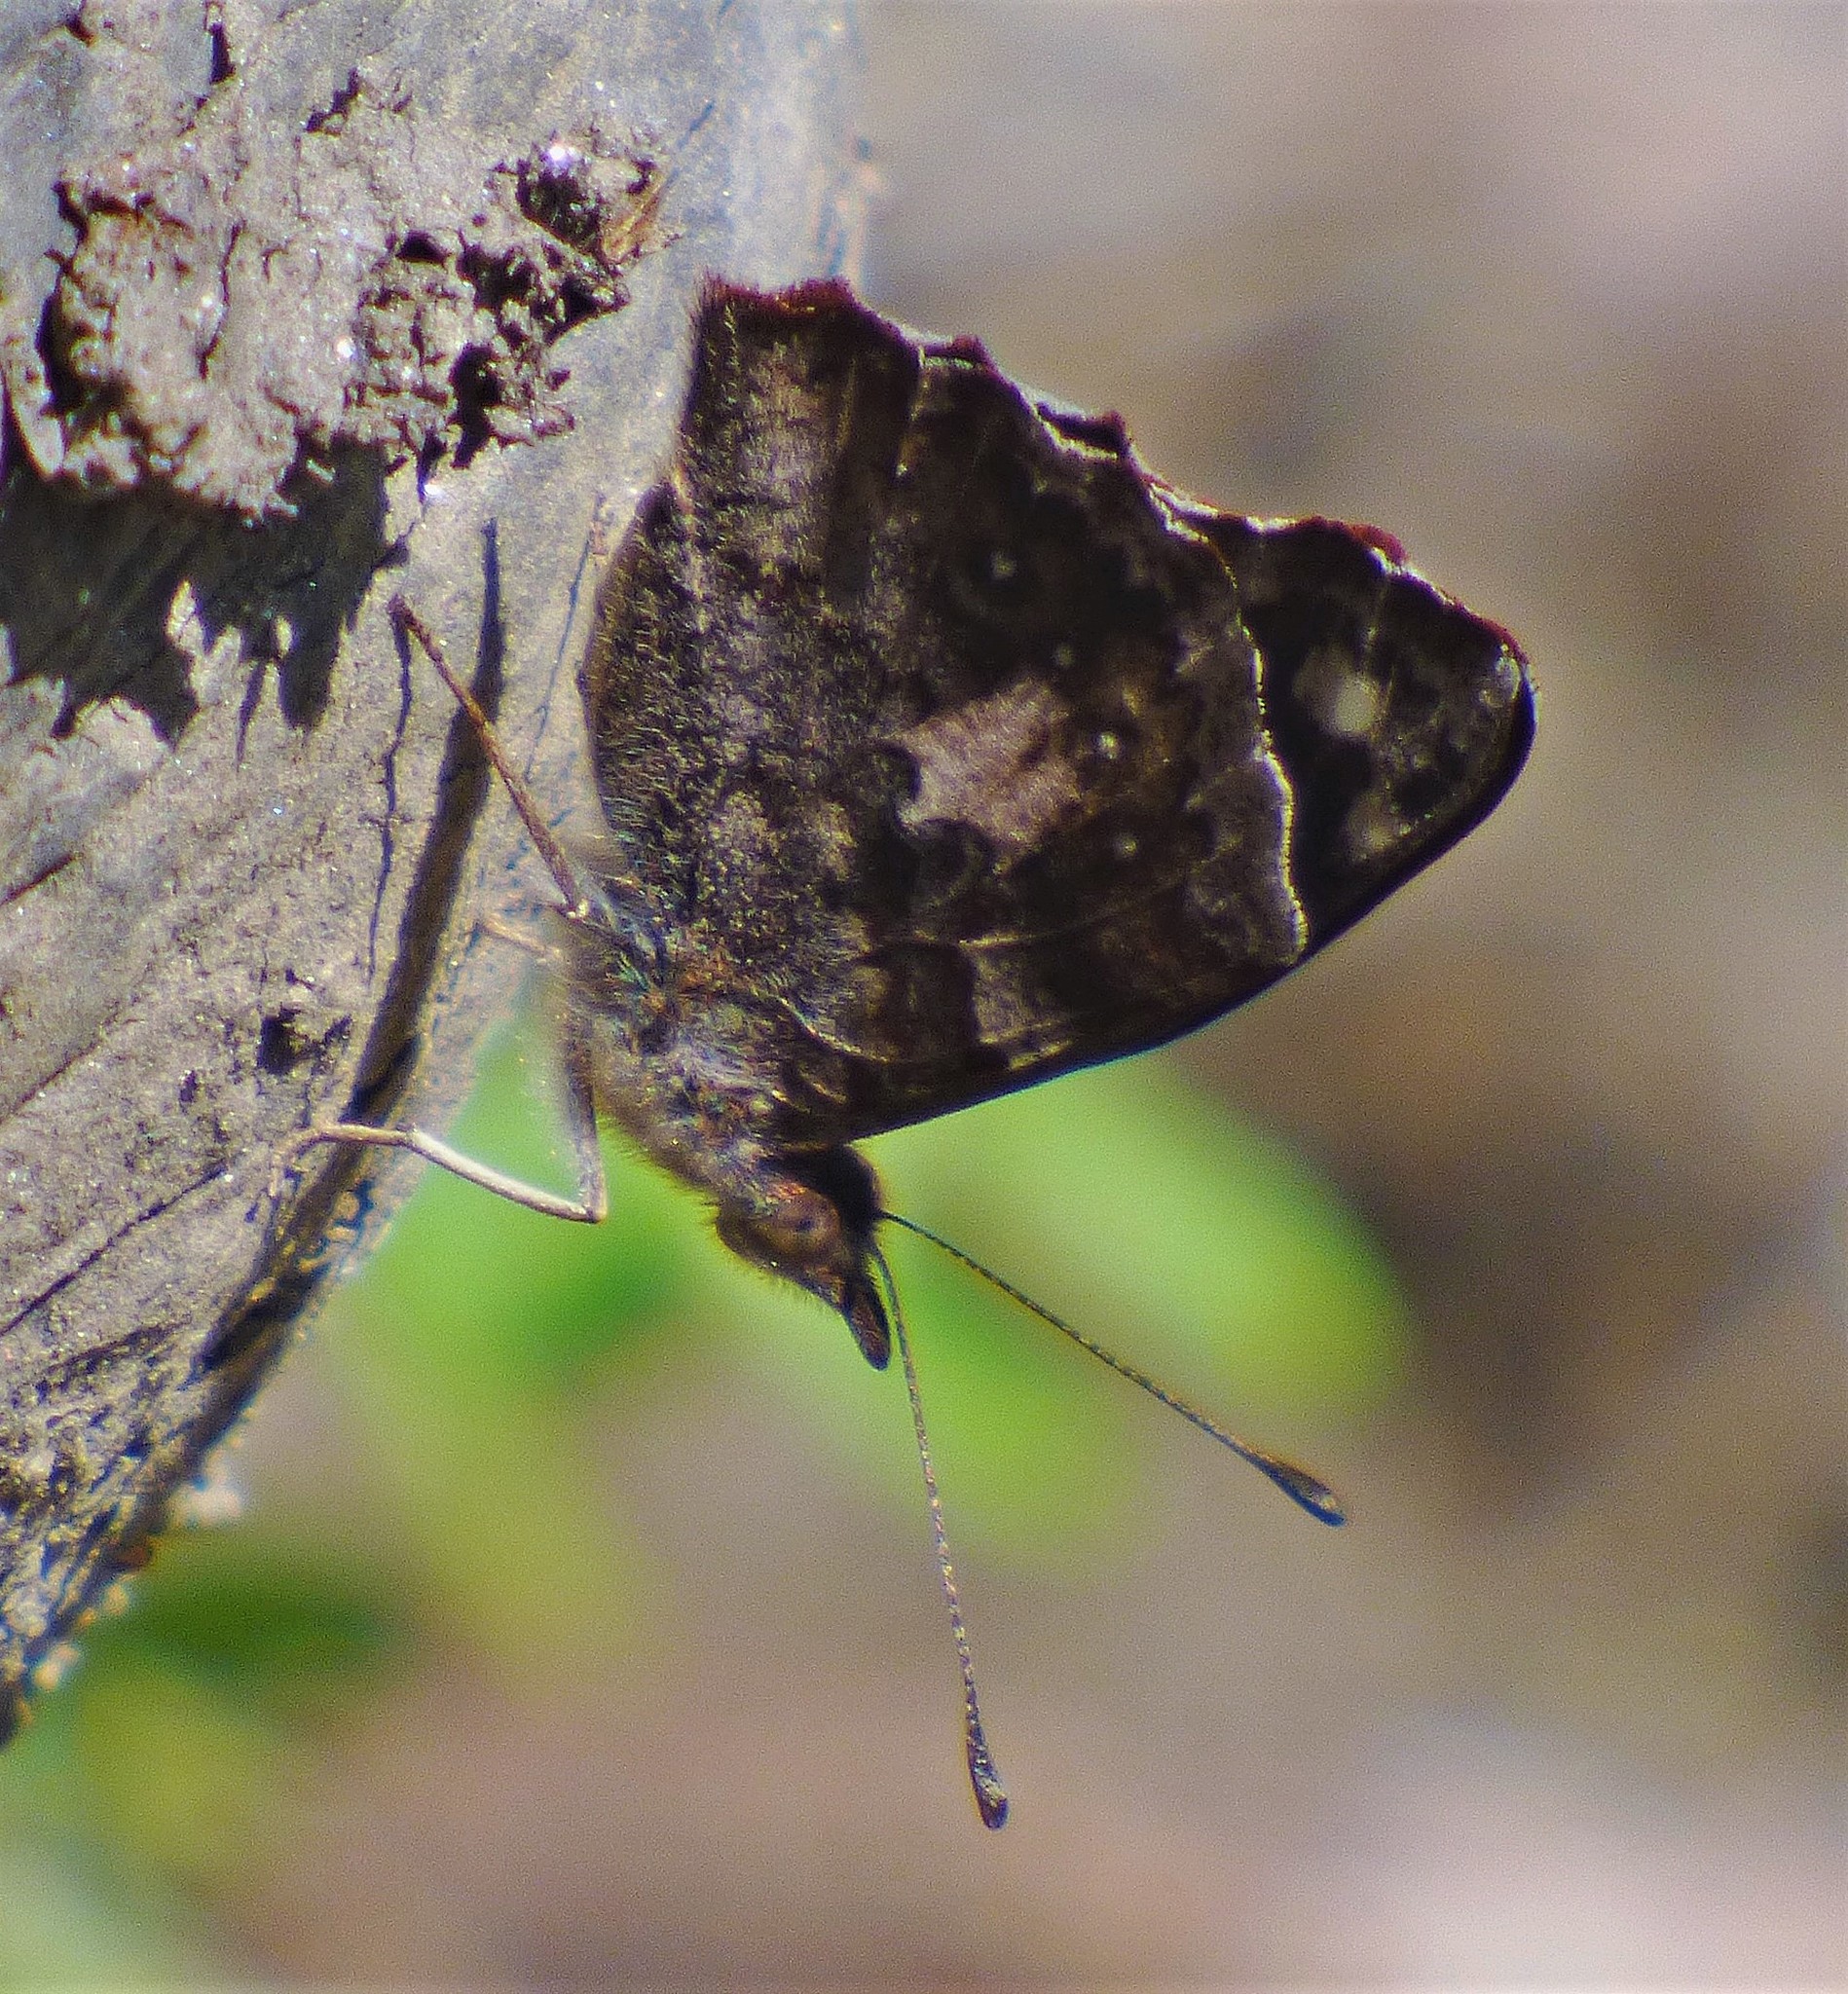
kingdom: Animalia
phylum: Arthropoda
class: Insecta
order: Lepidoptera
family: Nymphalidae
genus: Cybdelis
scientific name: Cybdelis
